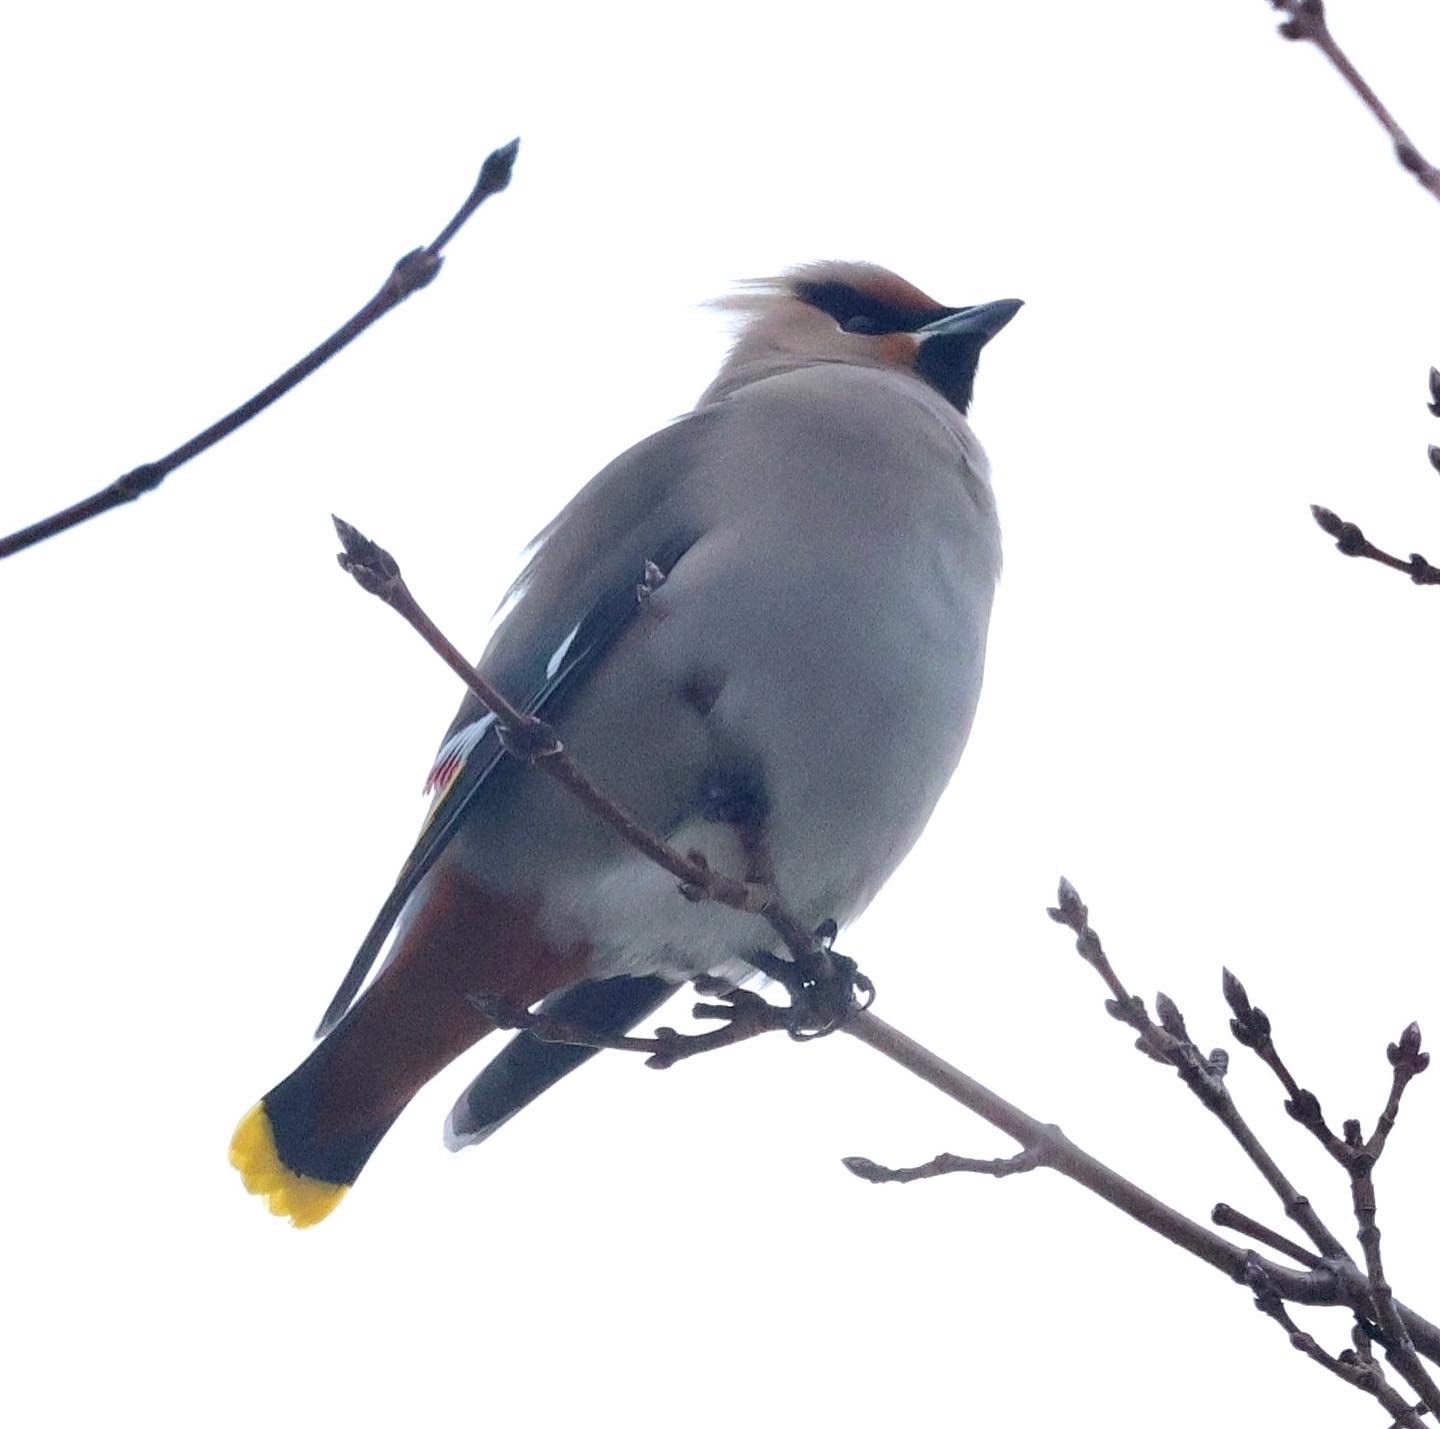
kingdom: Animalia
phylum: Chordata
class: Aves
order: Passeriformes
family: Bombycillidae
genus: Bombycilla
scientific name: Bombycilla garrulus
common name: Bohemian waxwing
